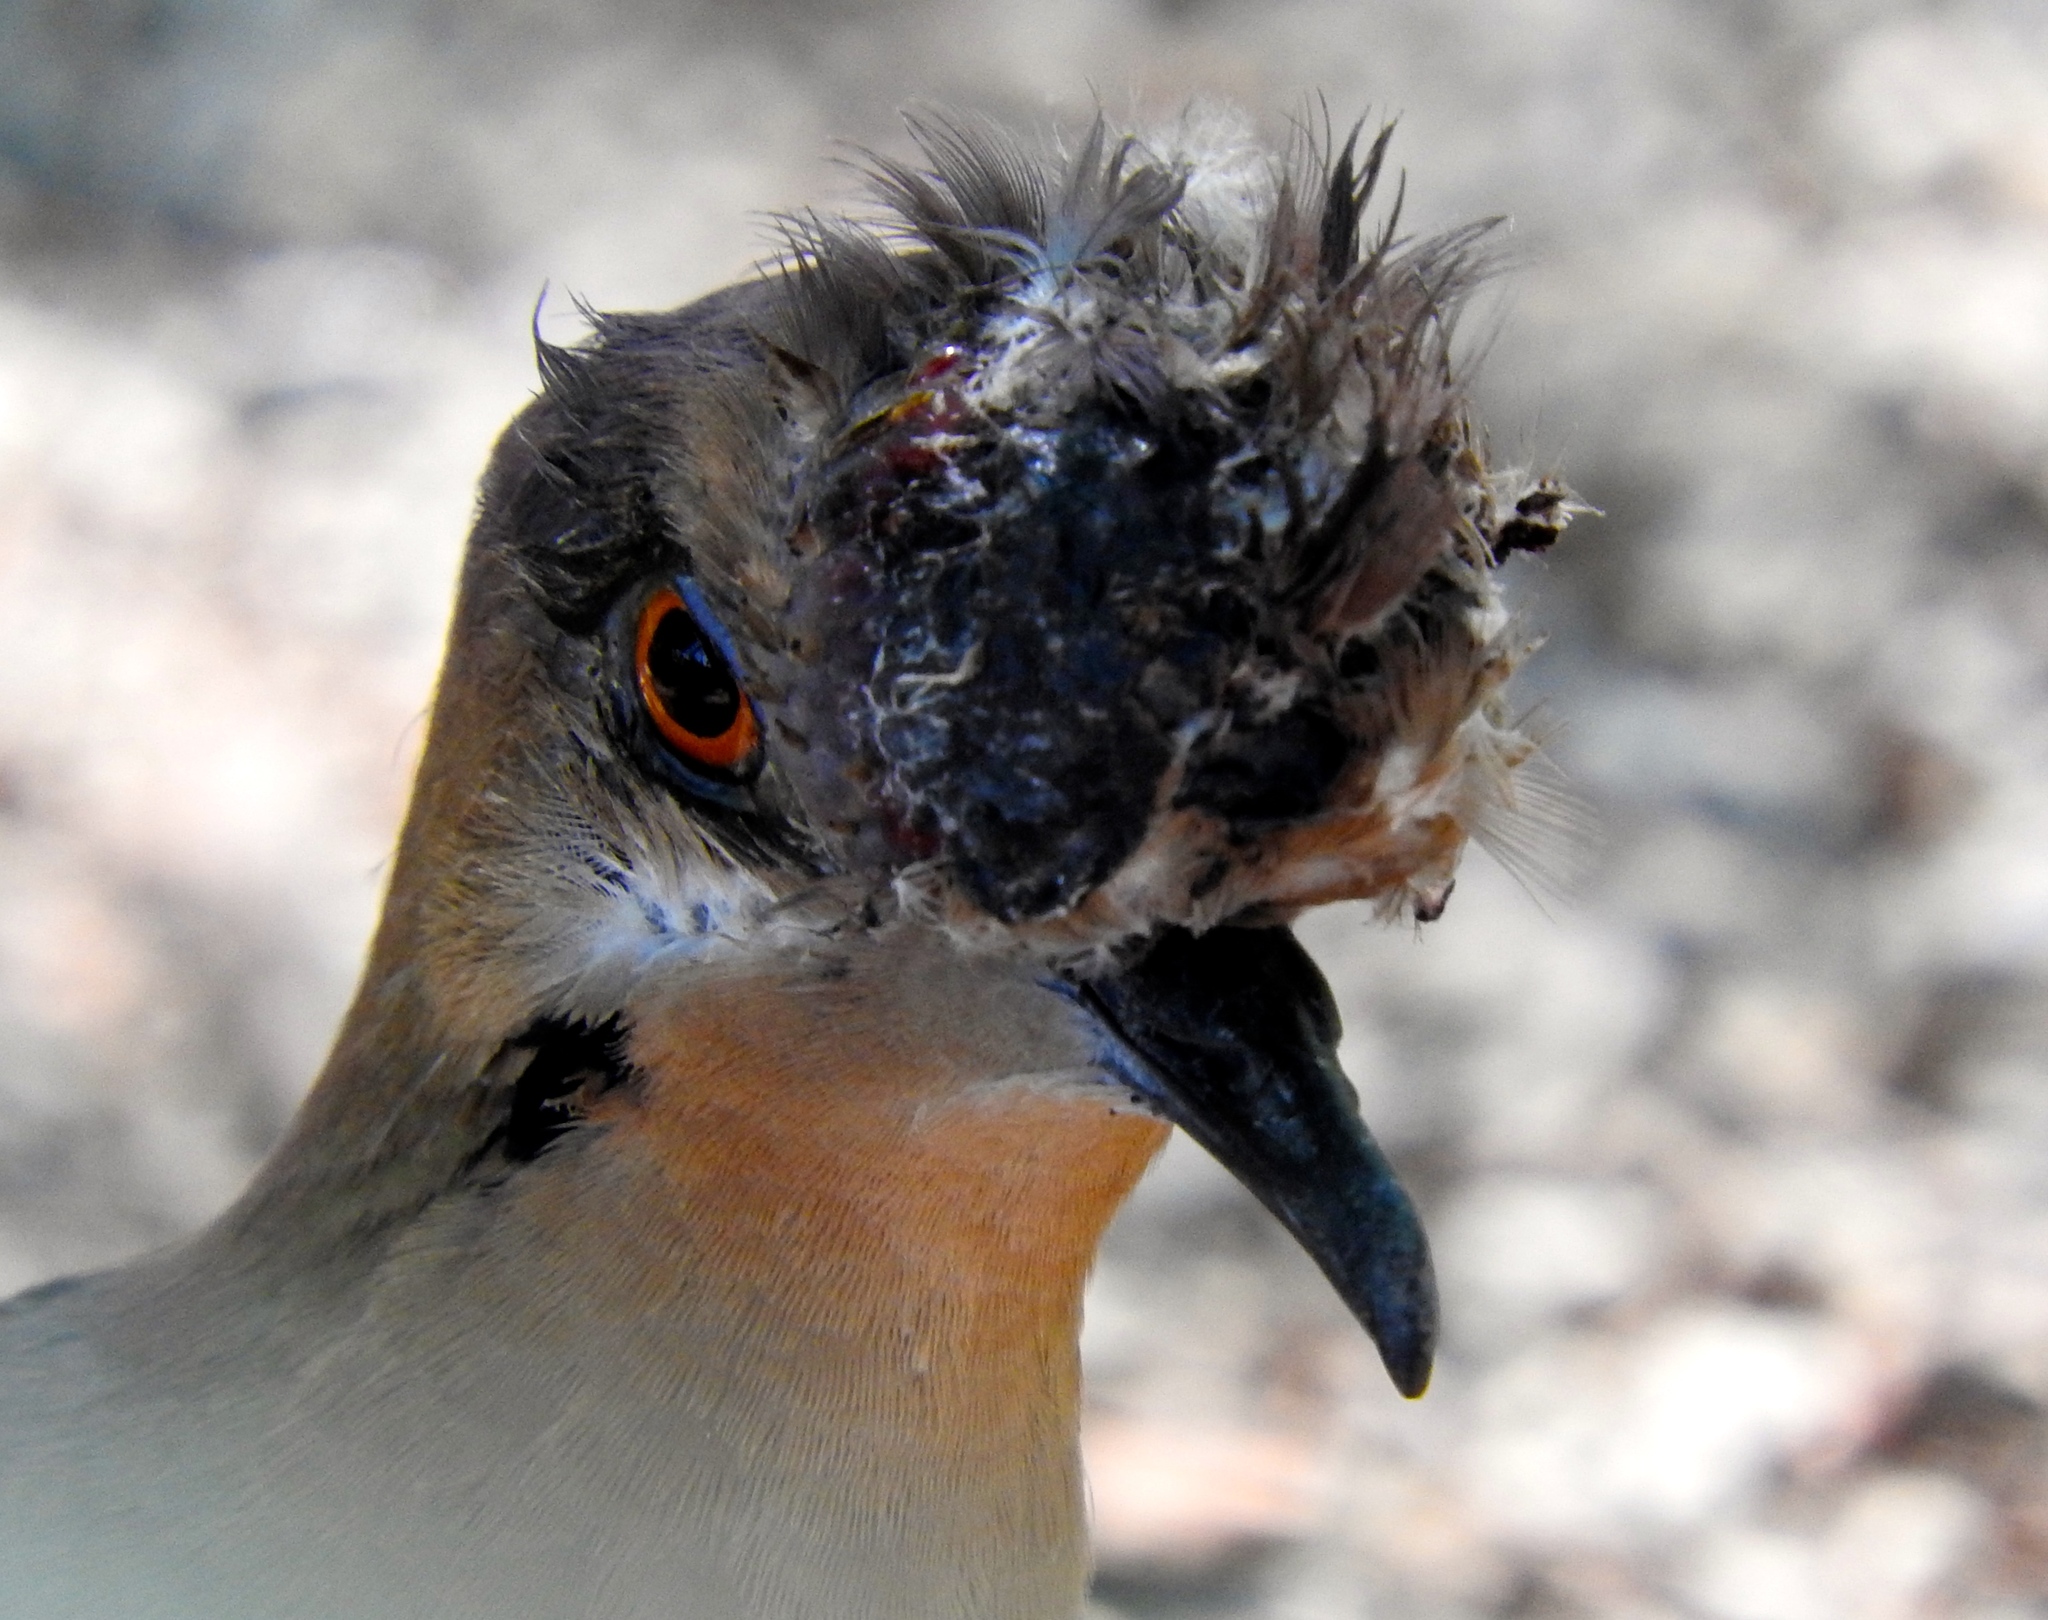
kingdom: Animalia
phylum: Chordata
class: Aves
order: Columbiformes
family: Columbidae
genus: Zenaida
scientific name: Zenaida asiatica
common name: White-winged dove
